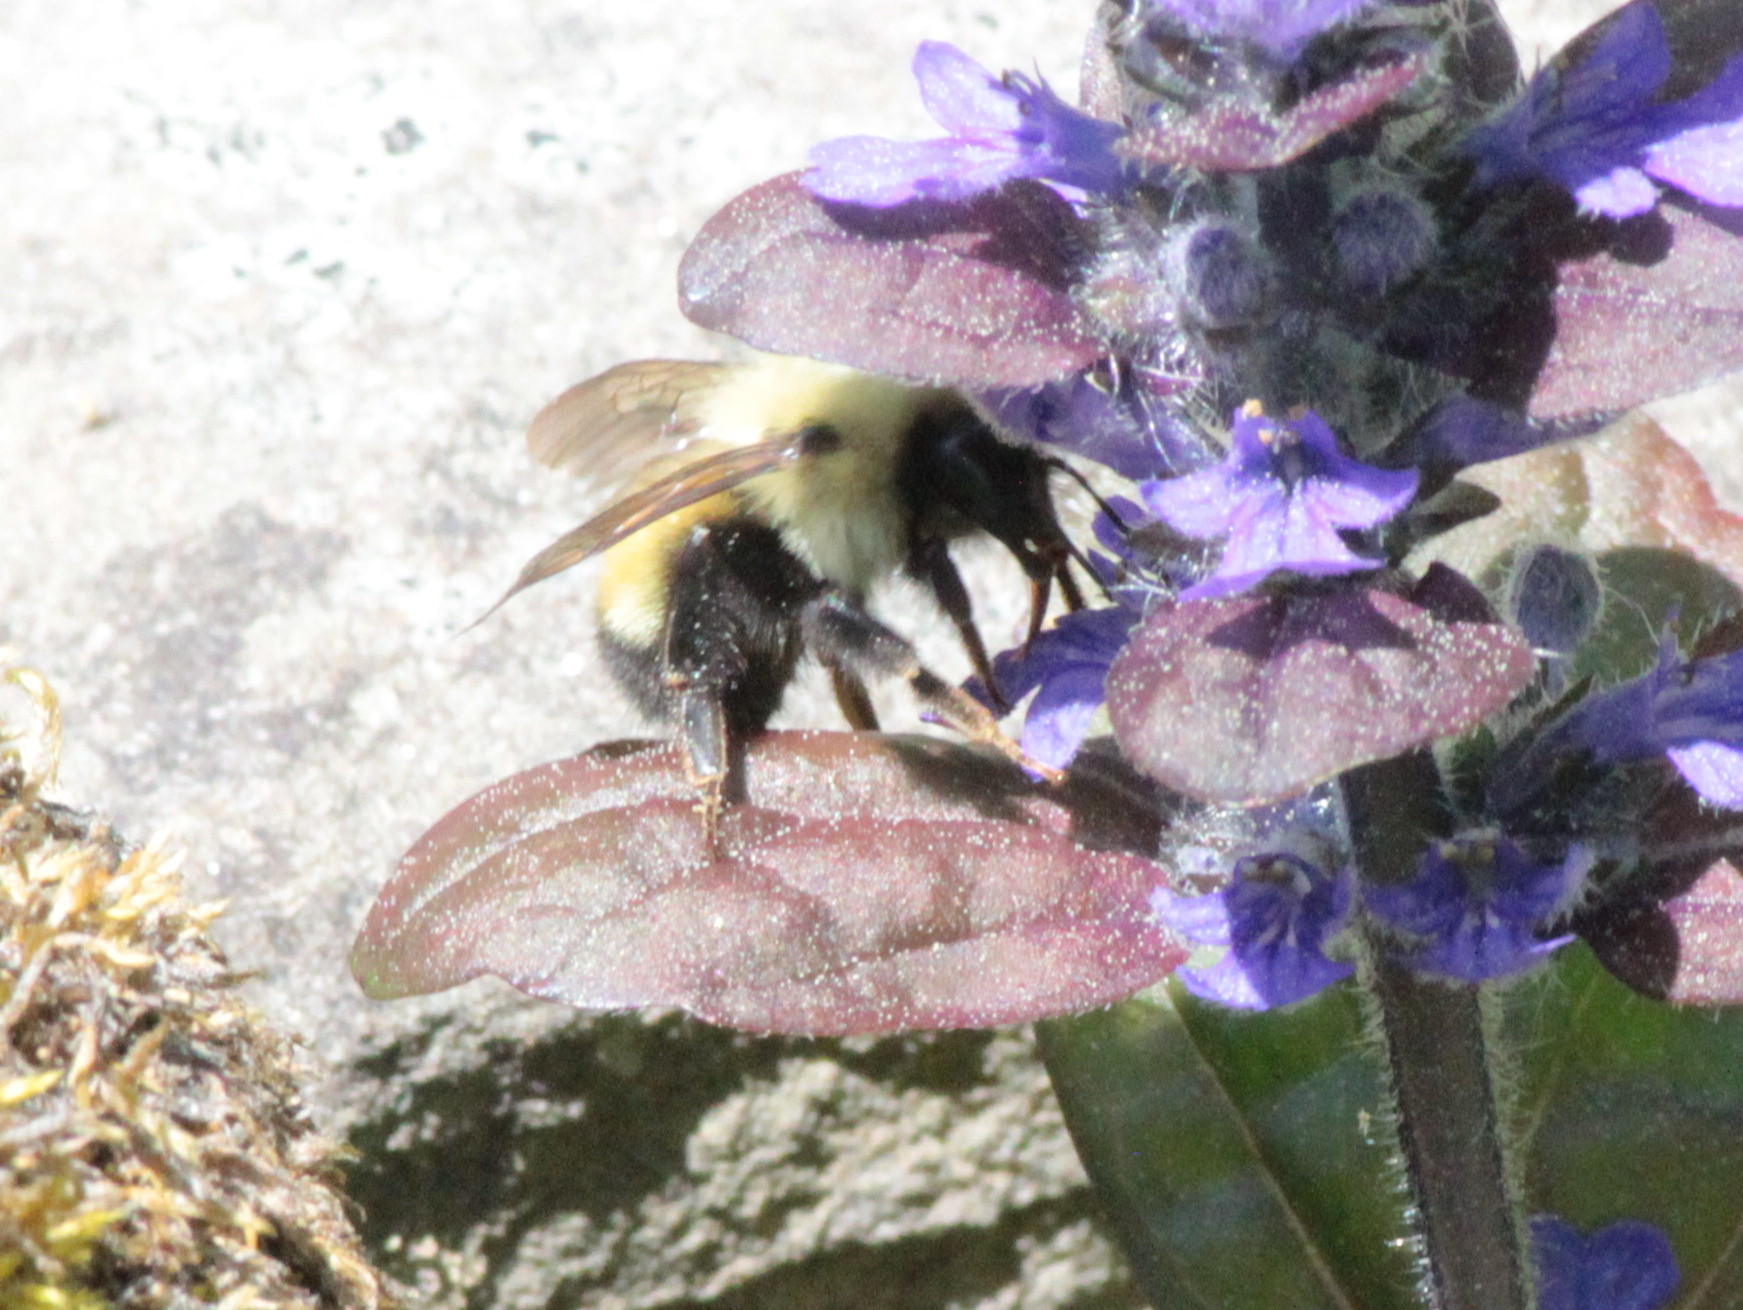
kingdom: Animalia
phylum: Arthropoda
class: Insecta
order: Hymenoptera
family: Apidae
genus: Bombus
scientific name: Bombus vagans
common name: Half-black bumble bee
